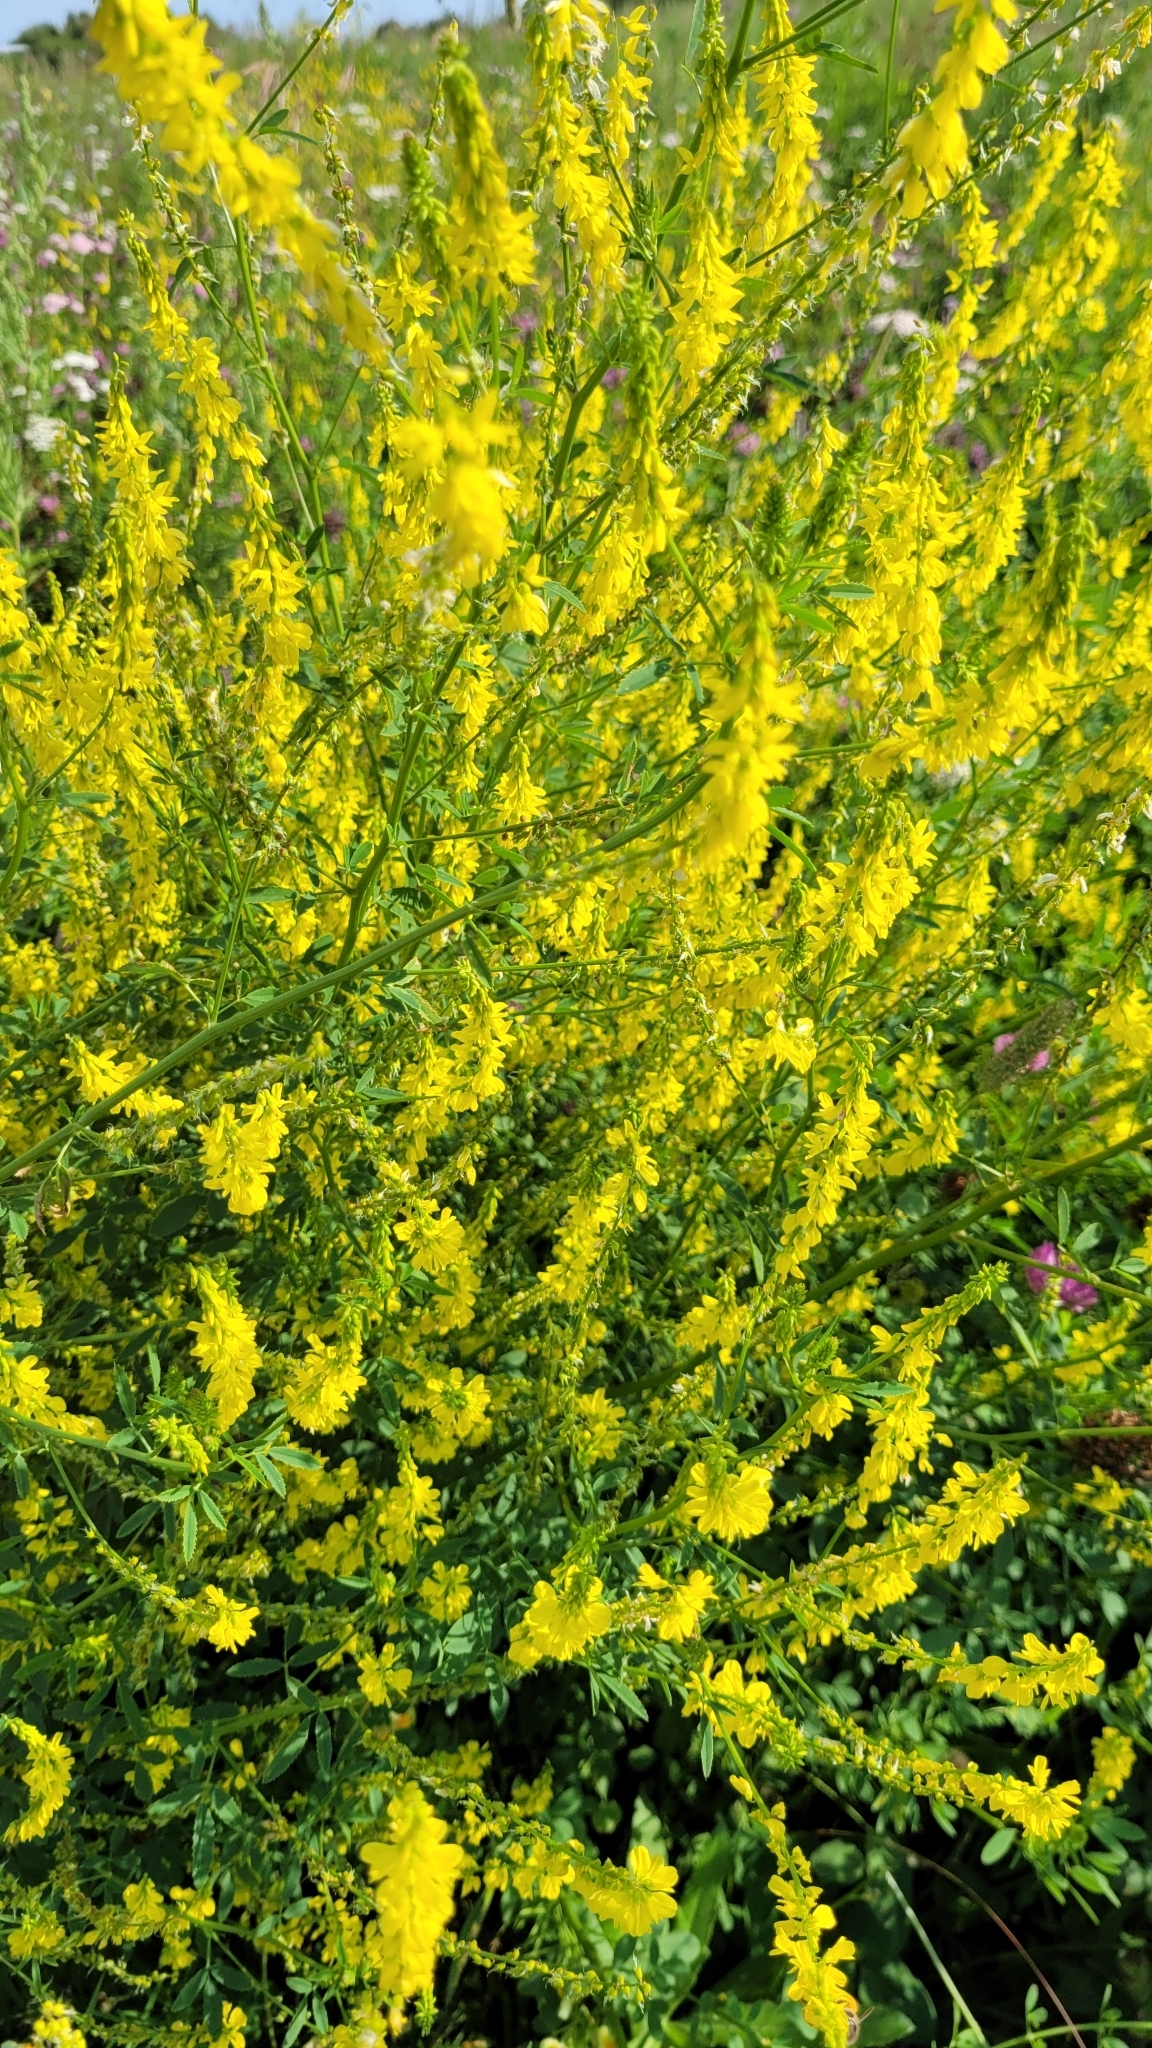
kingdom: Plantae
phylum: Tracheophyta
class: Magnoliopsida
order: Fabales
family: Fabaceae
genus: Melilotus
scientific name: Melilotus officinalis
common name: Sweetclover
